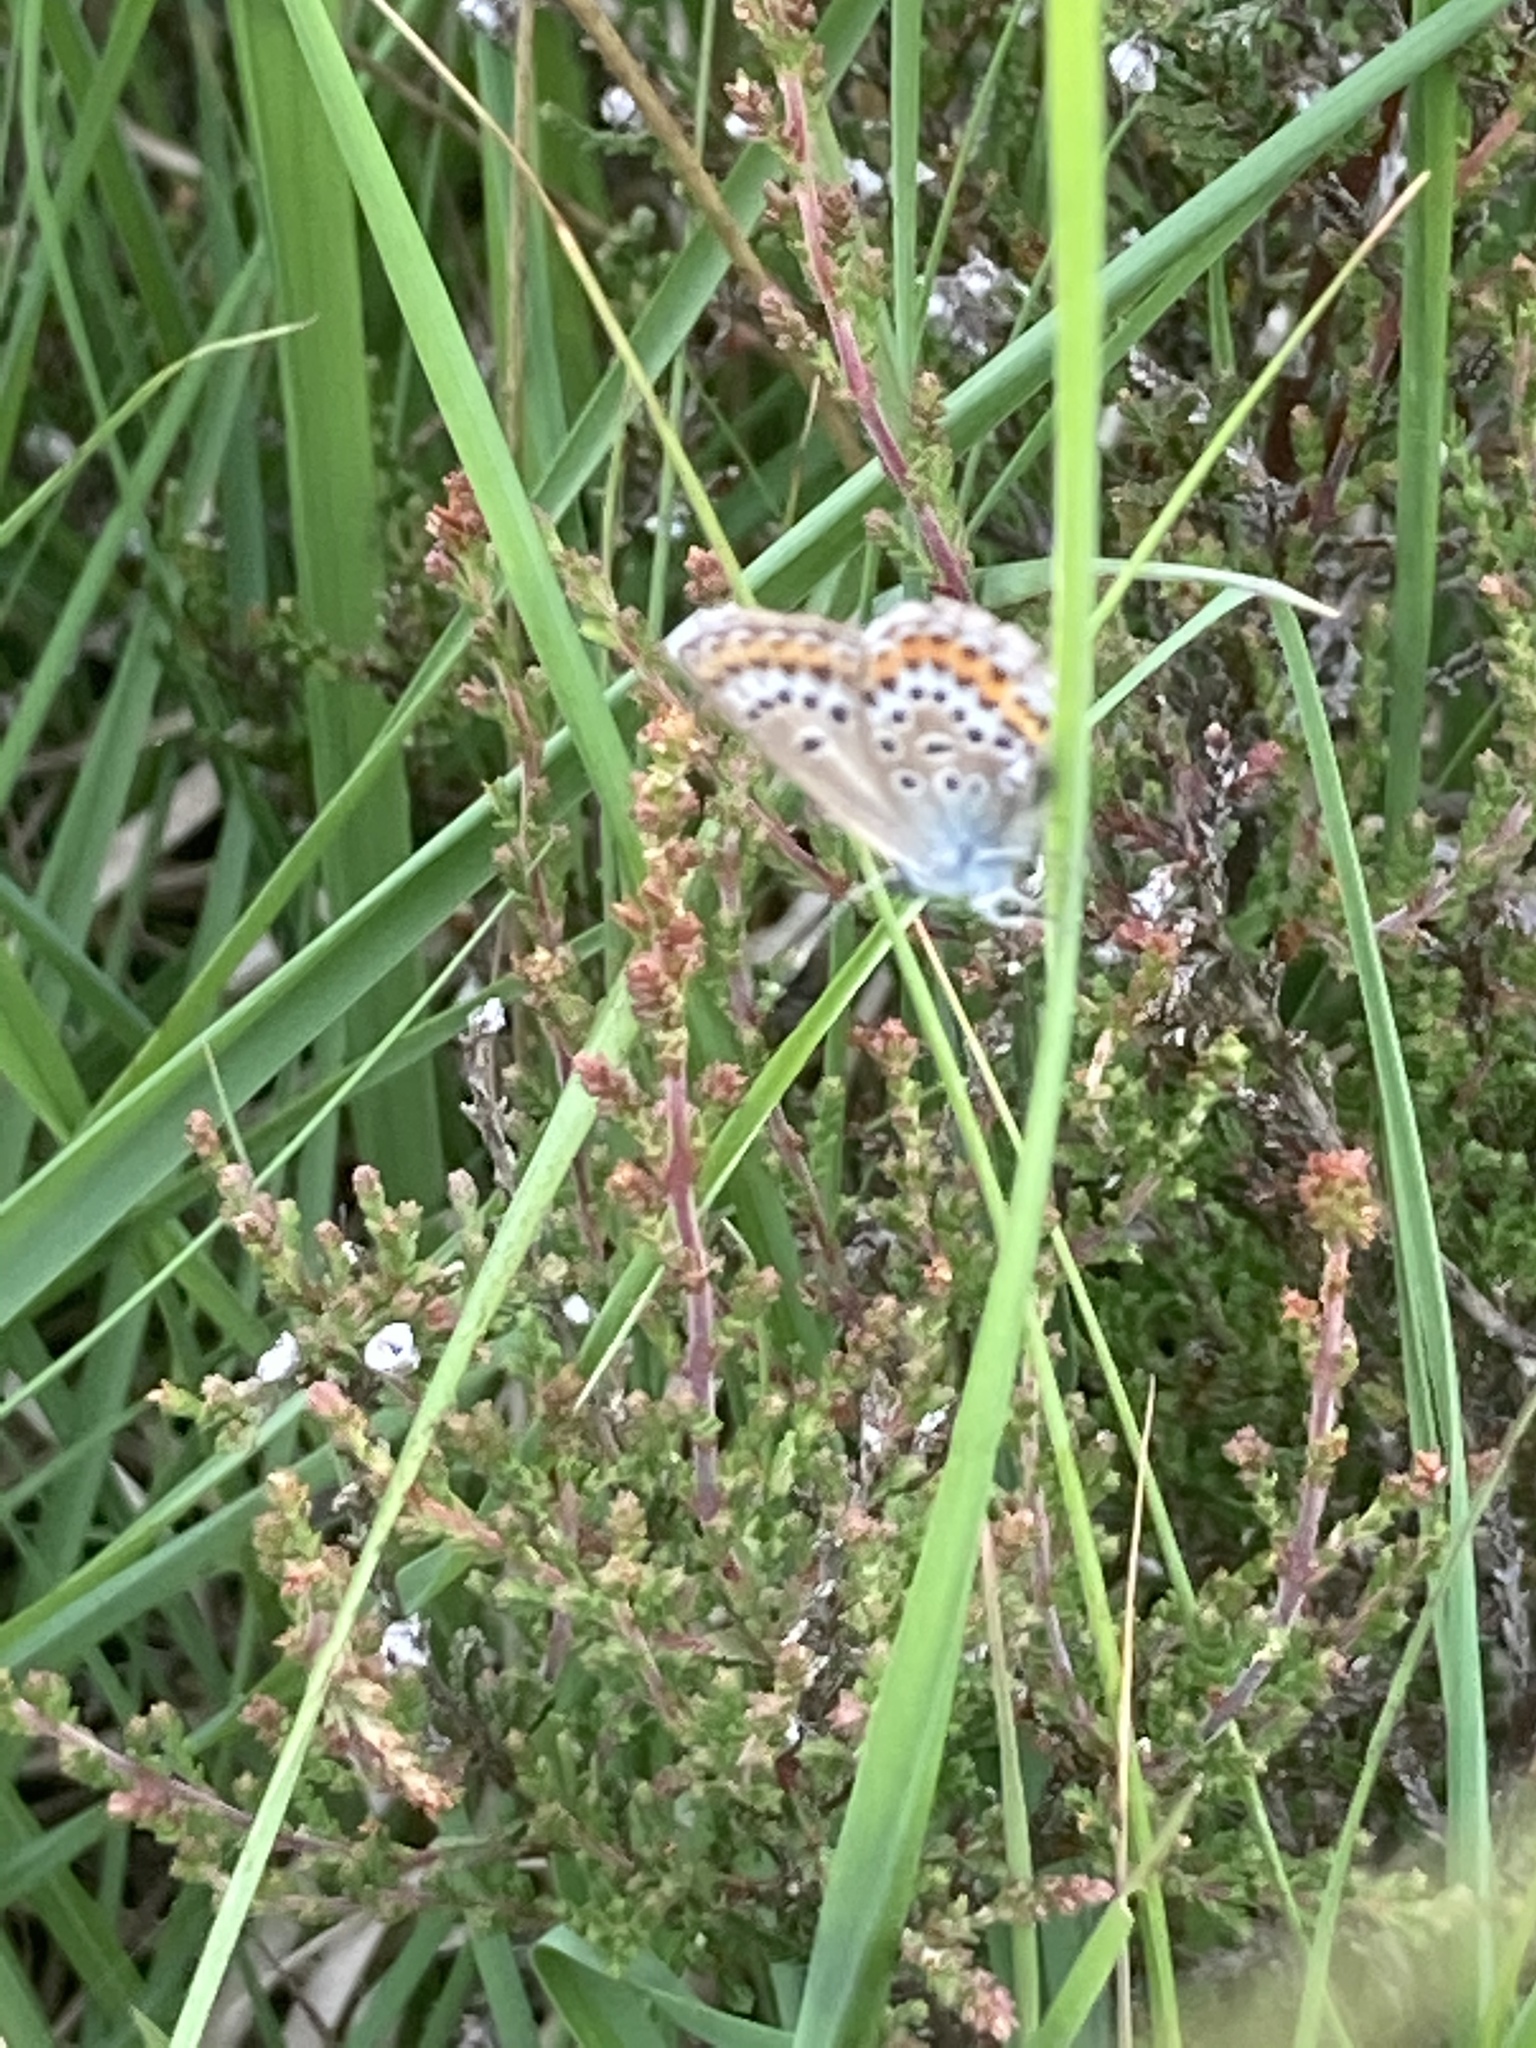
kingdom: Animalia
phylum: Arthropoda
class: Insecta
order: Lepidoptera
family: Lycaenidae
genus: Plebejus
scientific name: Plebejus argus
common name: Silver-studded blue
